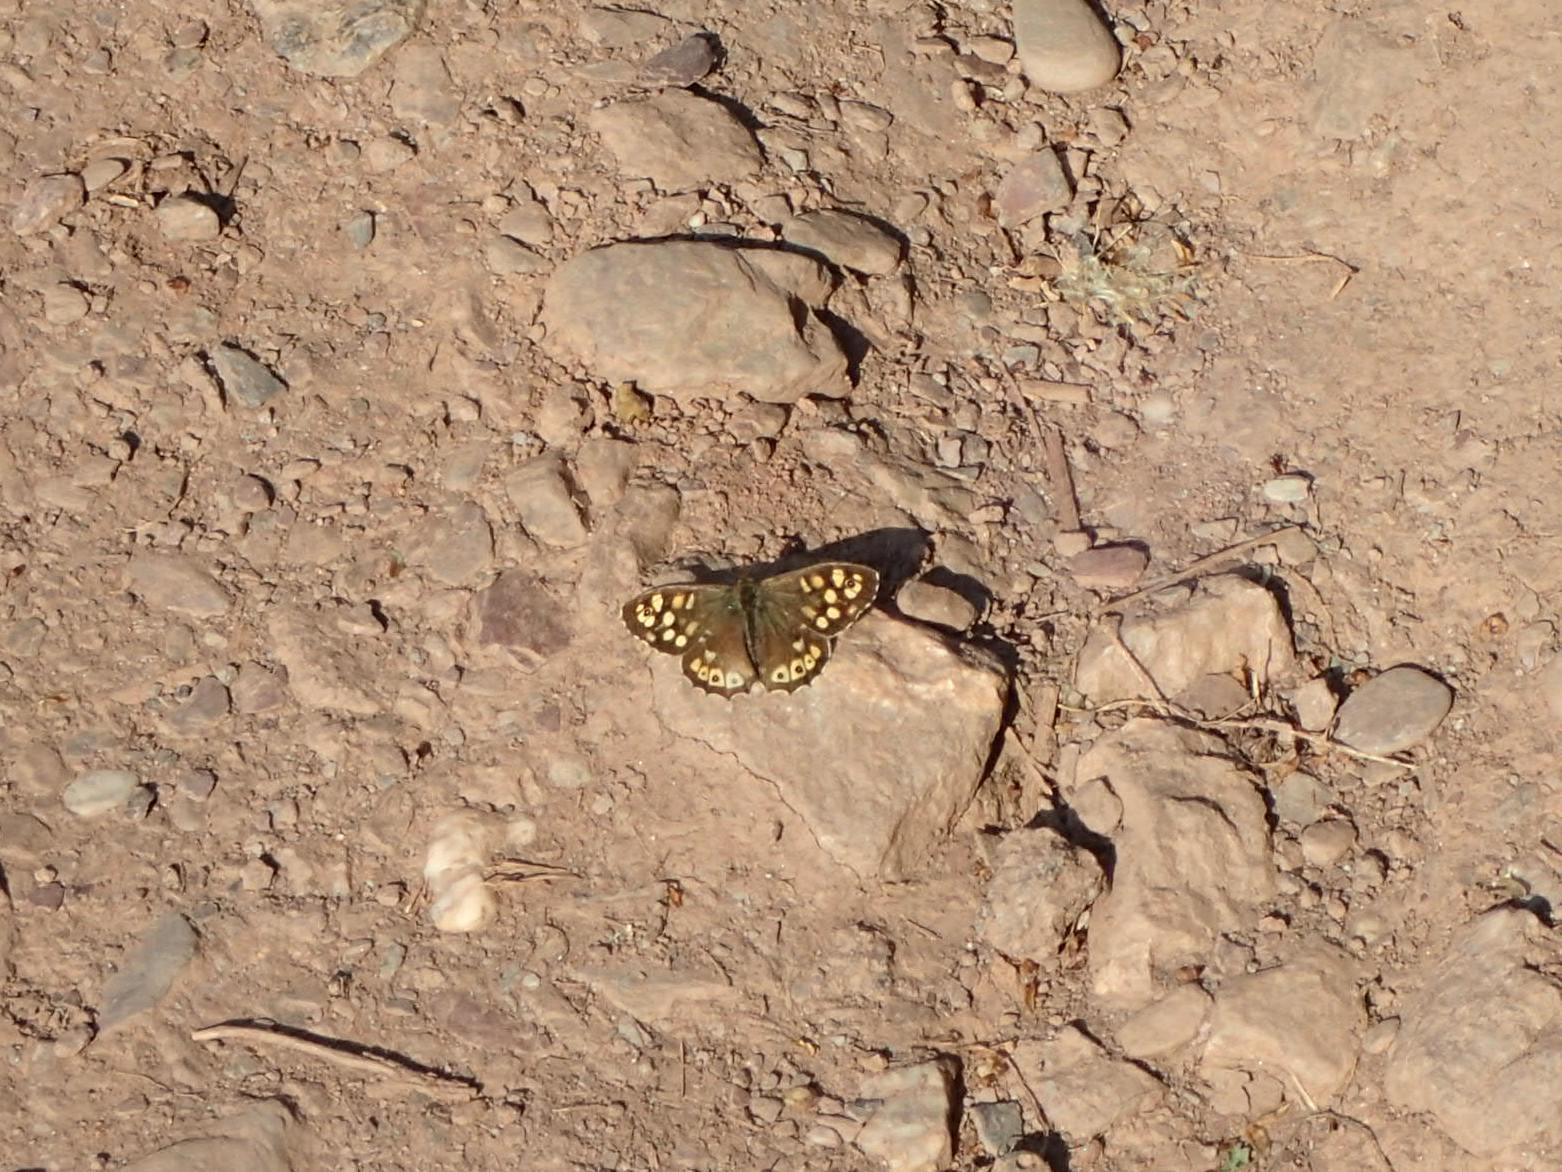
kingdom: Animalia
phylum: Arthropoda
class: Insecta
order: Lepidoptera
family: Nymphalidae
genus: Pararge
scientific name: Pararge aegeria
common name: Speckled wood
